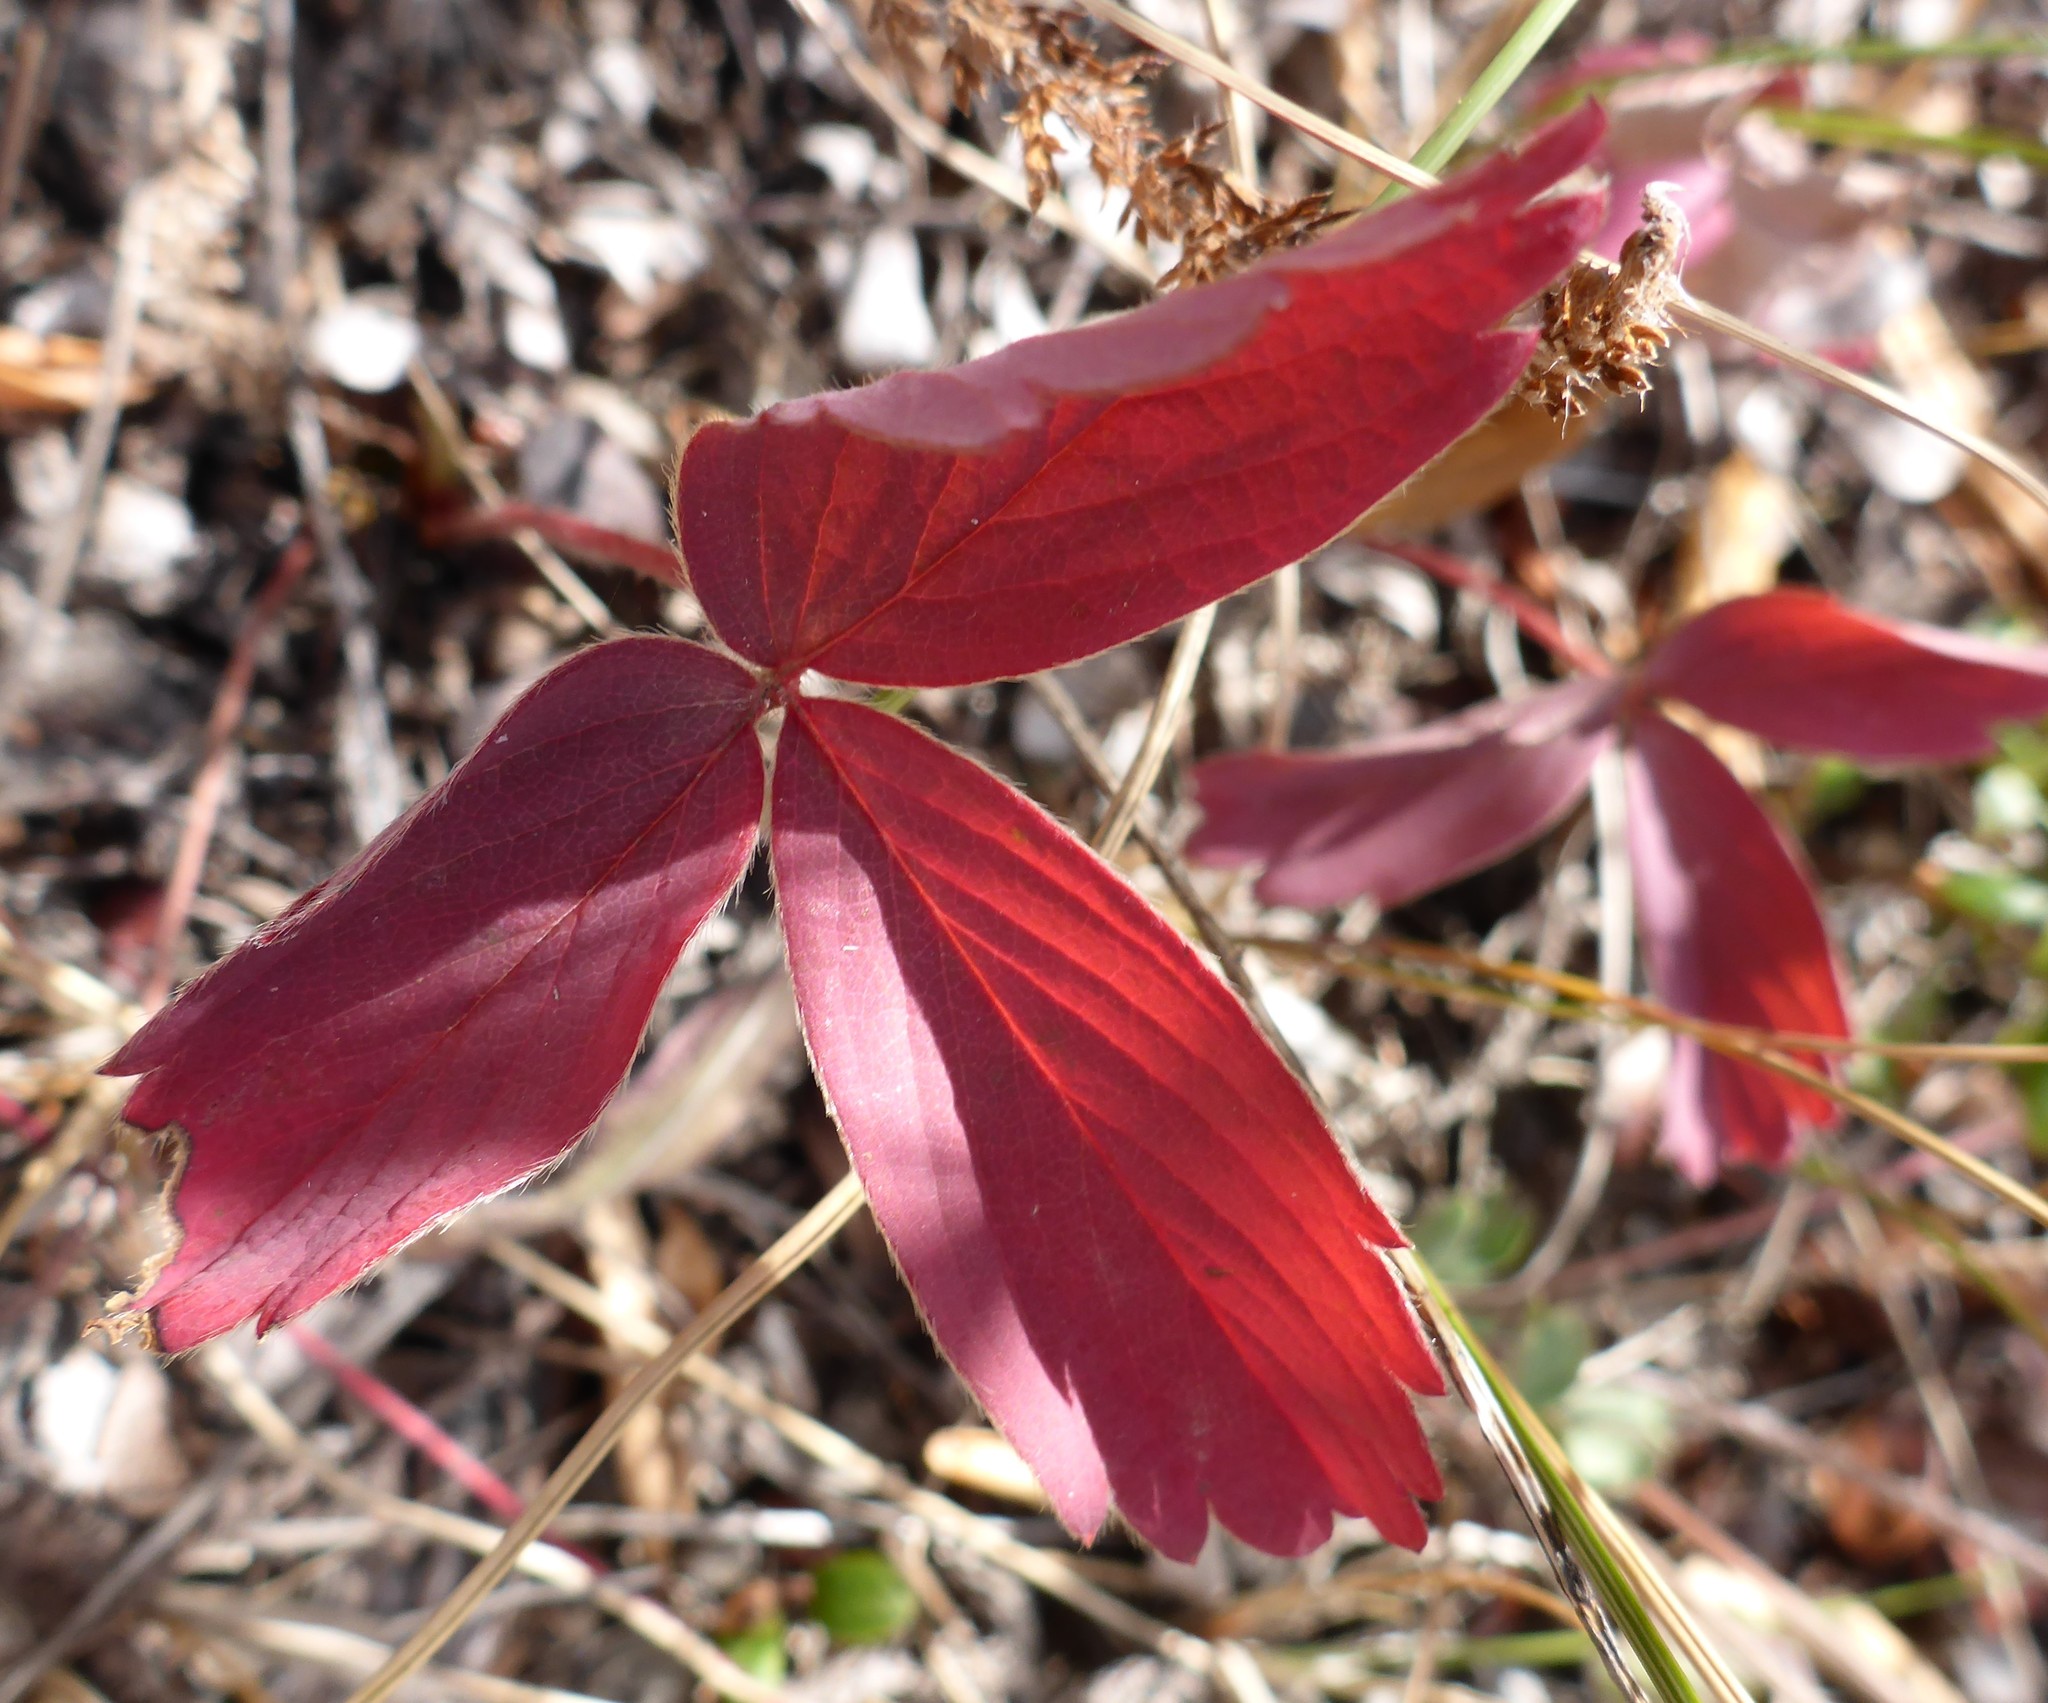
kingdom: Plantae
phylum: Tracheophyta
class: Magnoliopsida
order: Rosales
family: Rosaceae
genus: Fragaria
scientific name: Fragaria virginiana
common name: Thickleaved wild strawberry
